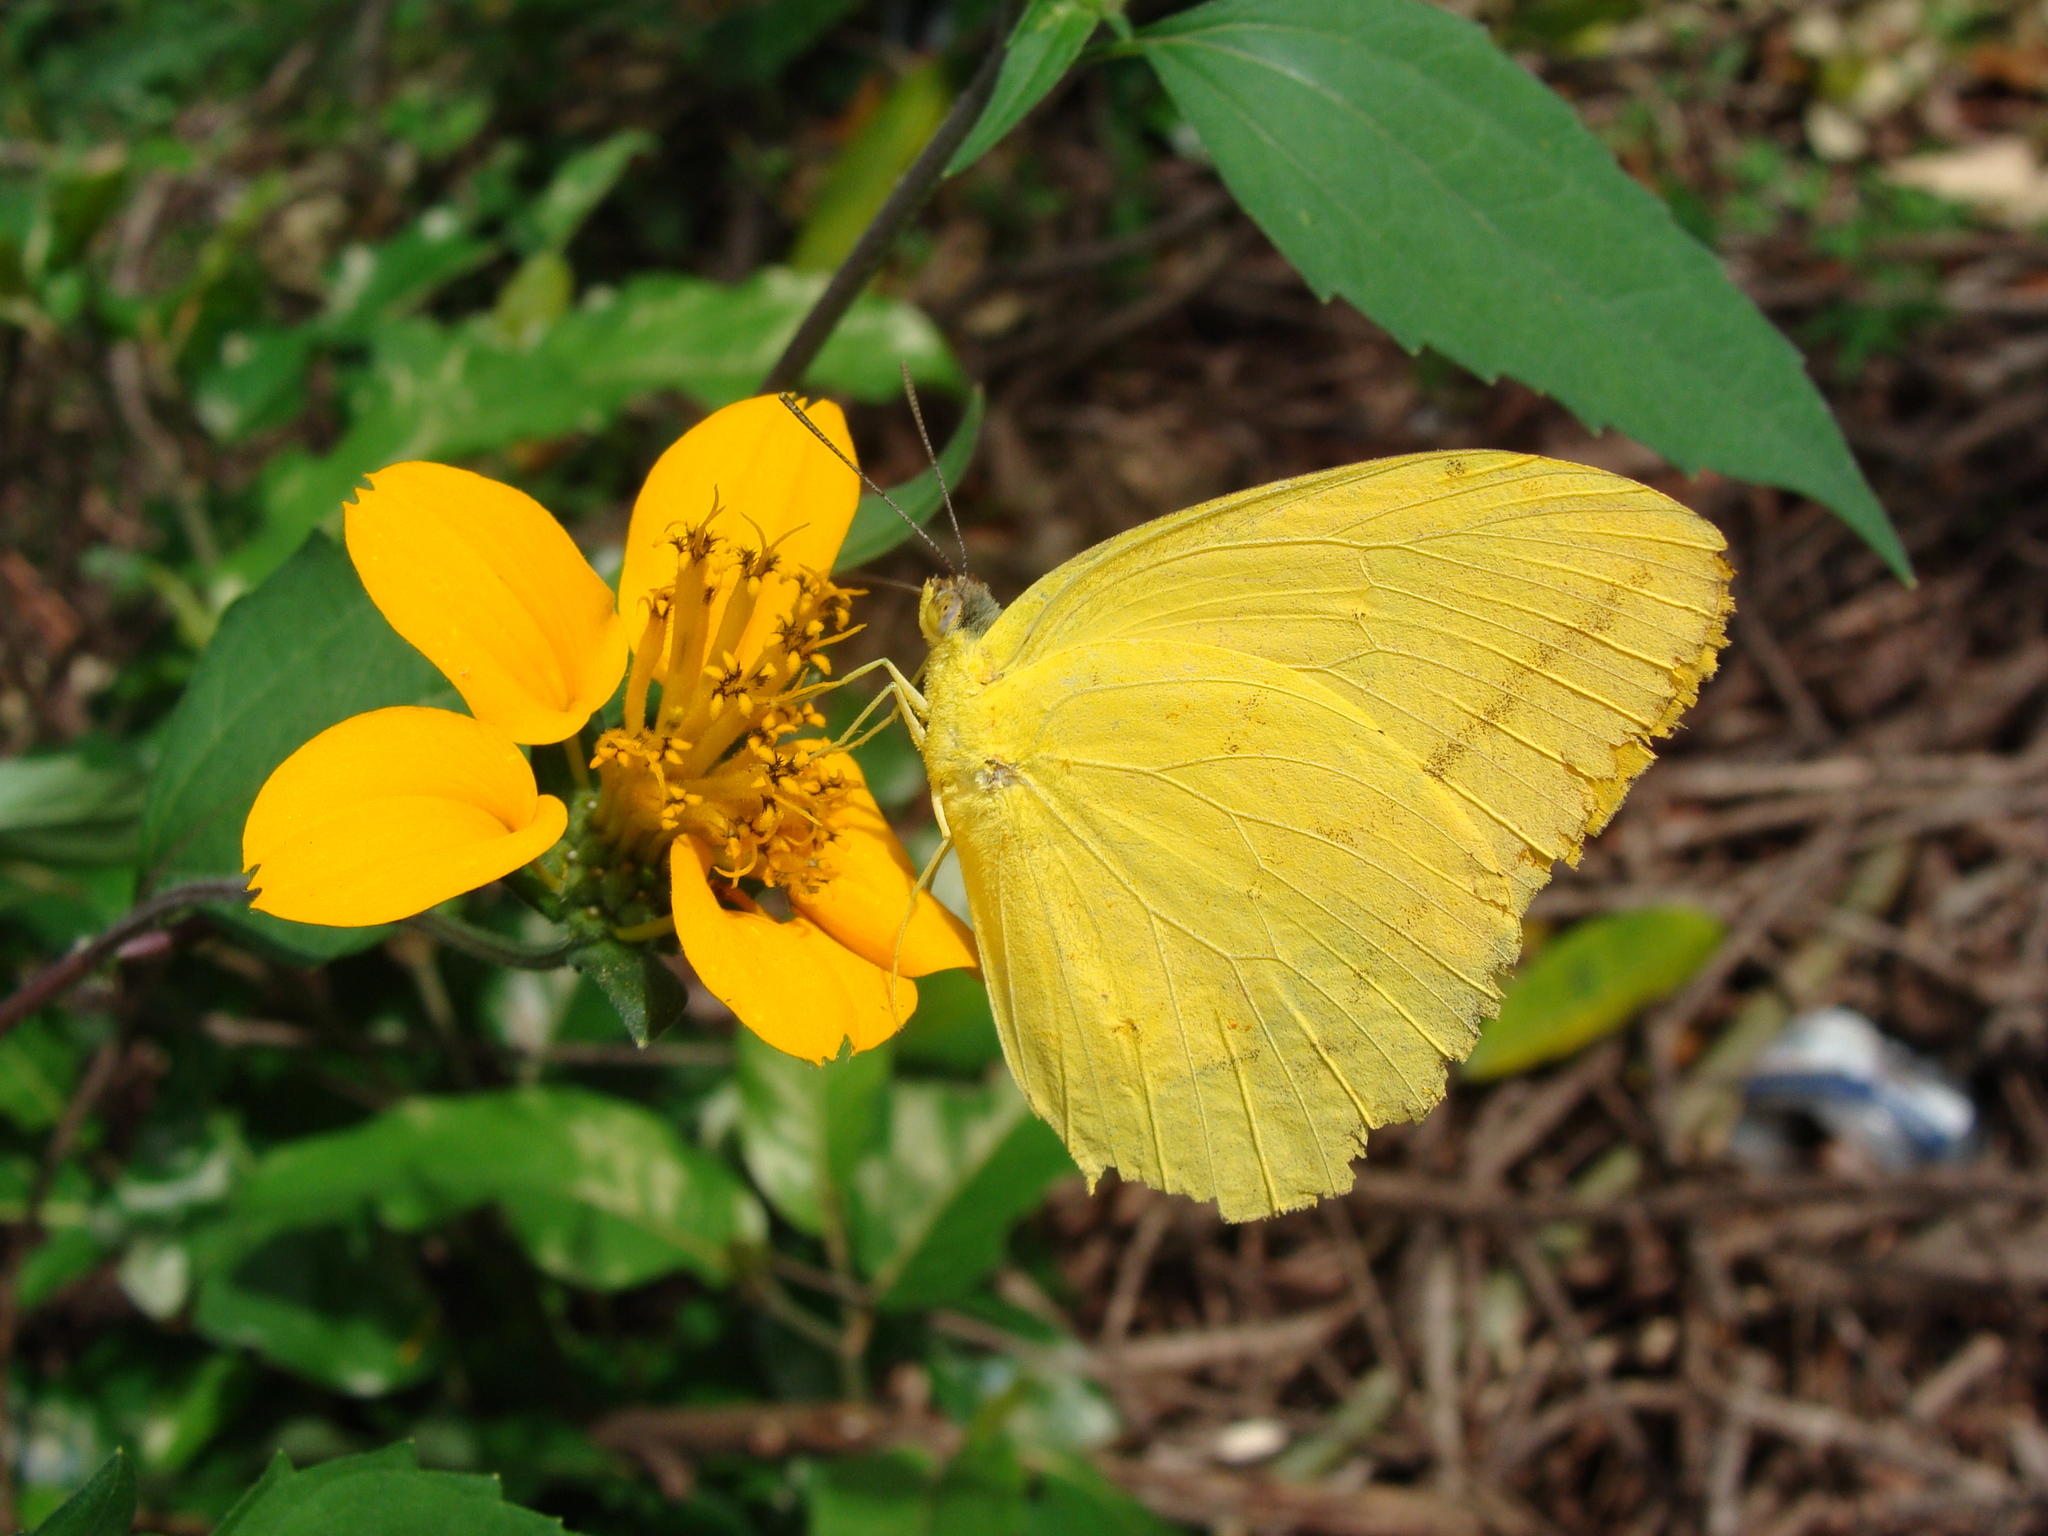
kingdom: Animalia
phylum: Arthropoda
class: Insecta
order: Lepidoptera
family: Pieridae
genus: Phoebis
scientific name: Phoebis agarithe
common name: Large orange sulphur
